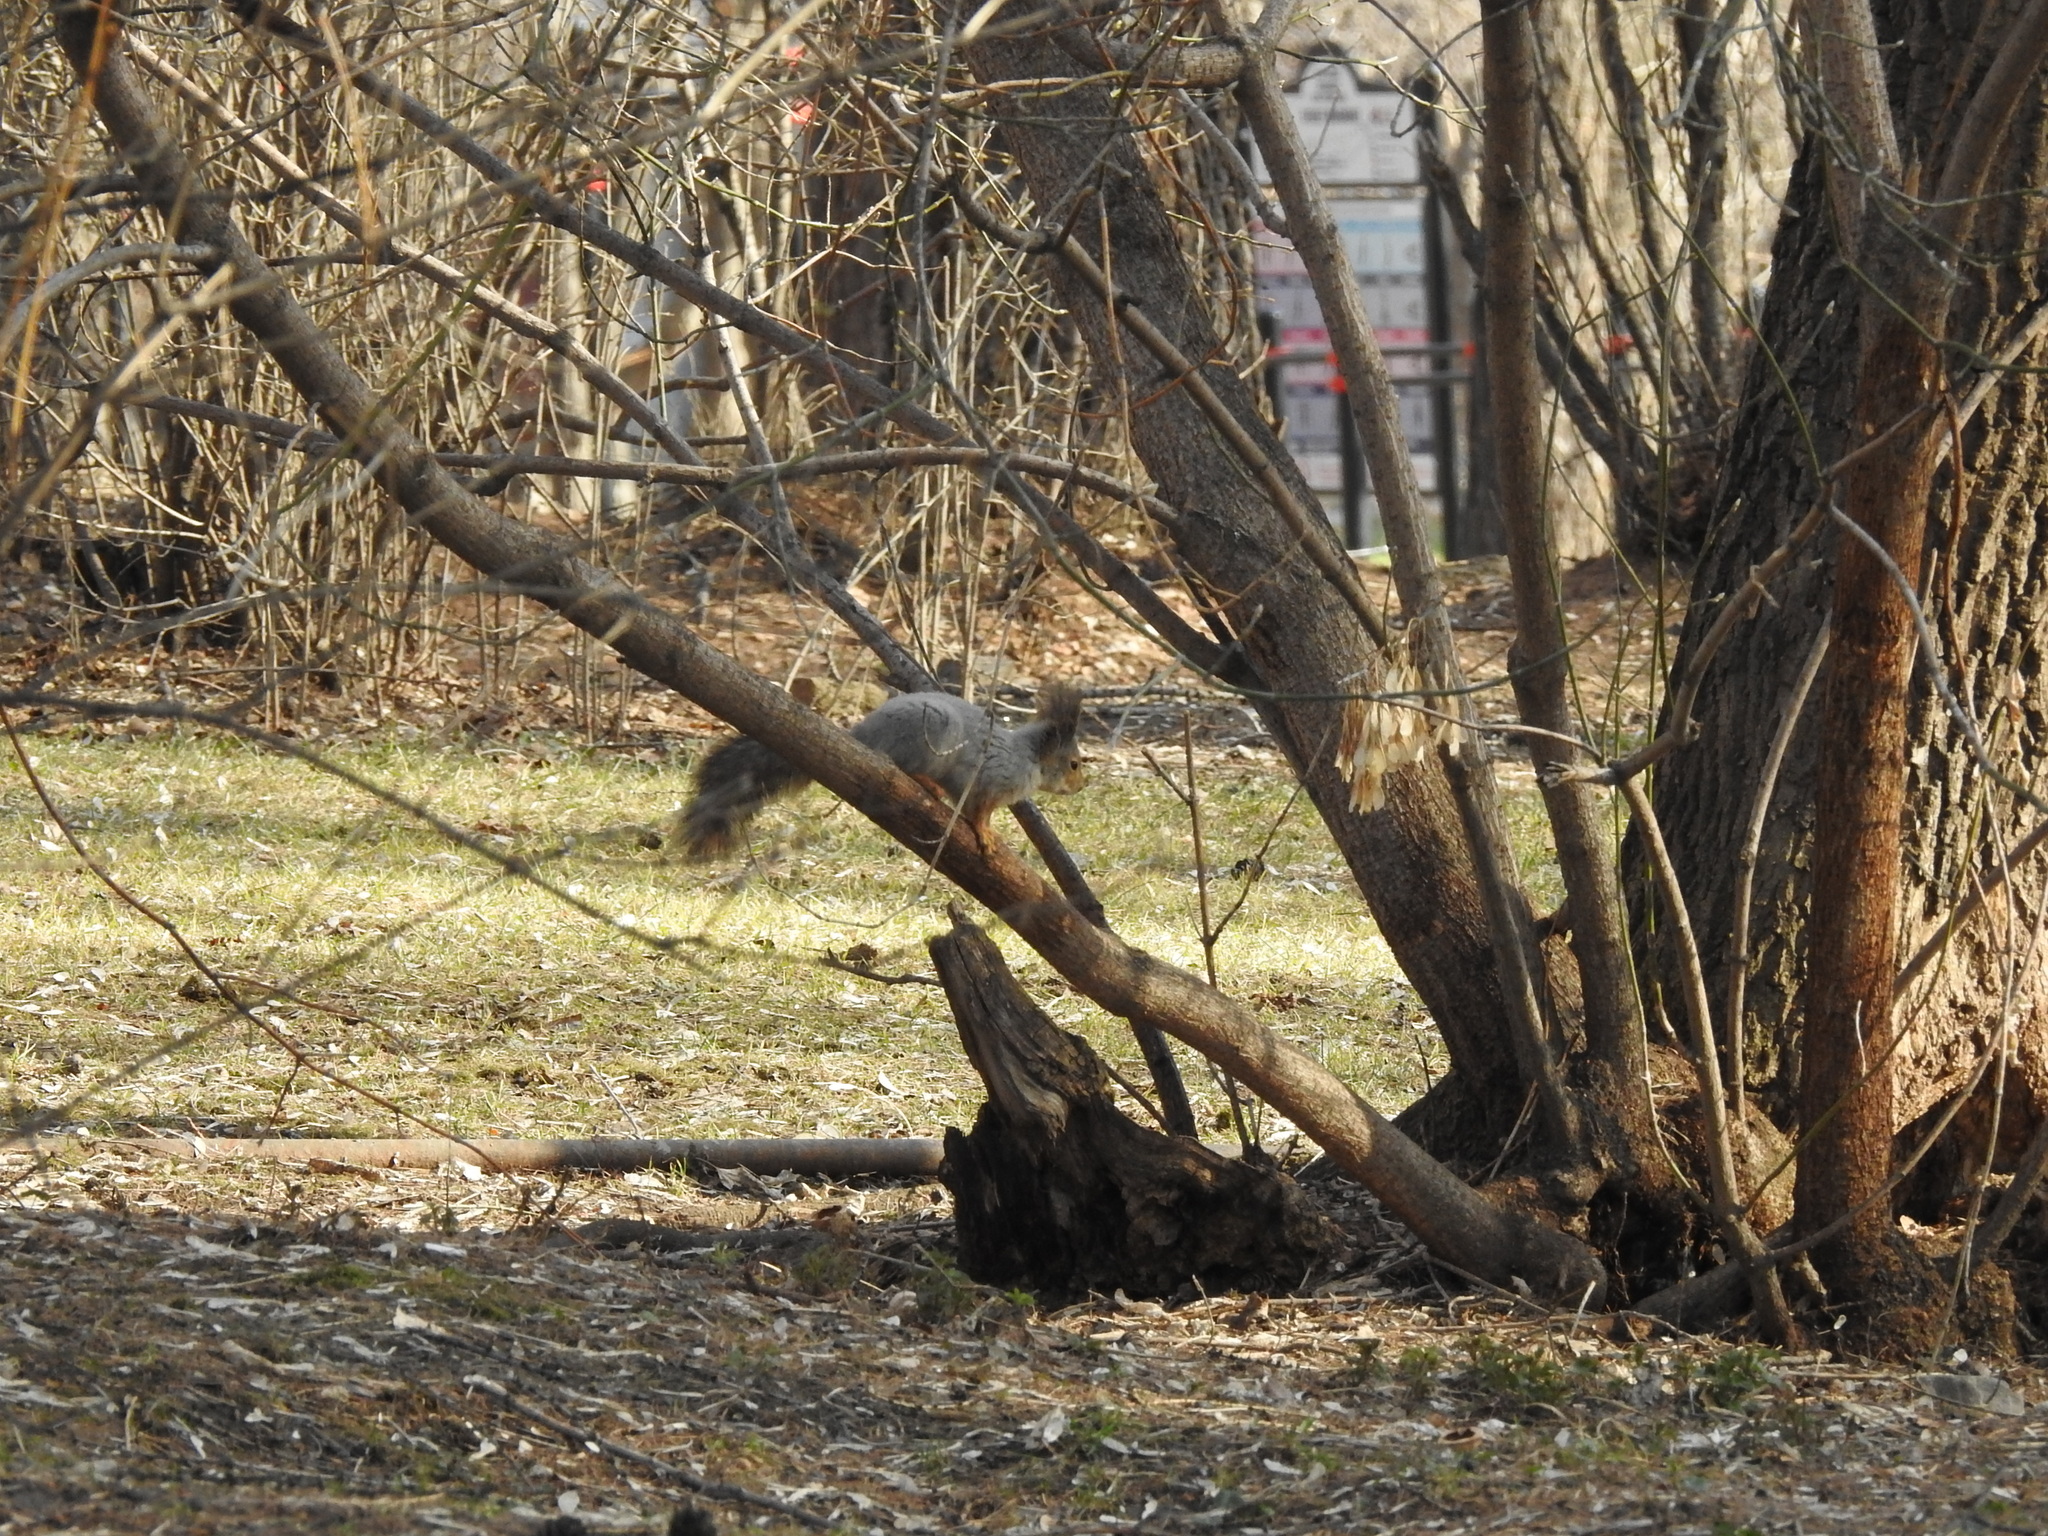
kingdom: Animalia
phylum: Chordata
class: Mammalia
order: Rodentia
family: Sciuridae
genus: Sciurus
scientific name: Sciurus vulgaris
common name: Eurasian red squirrel
